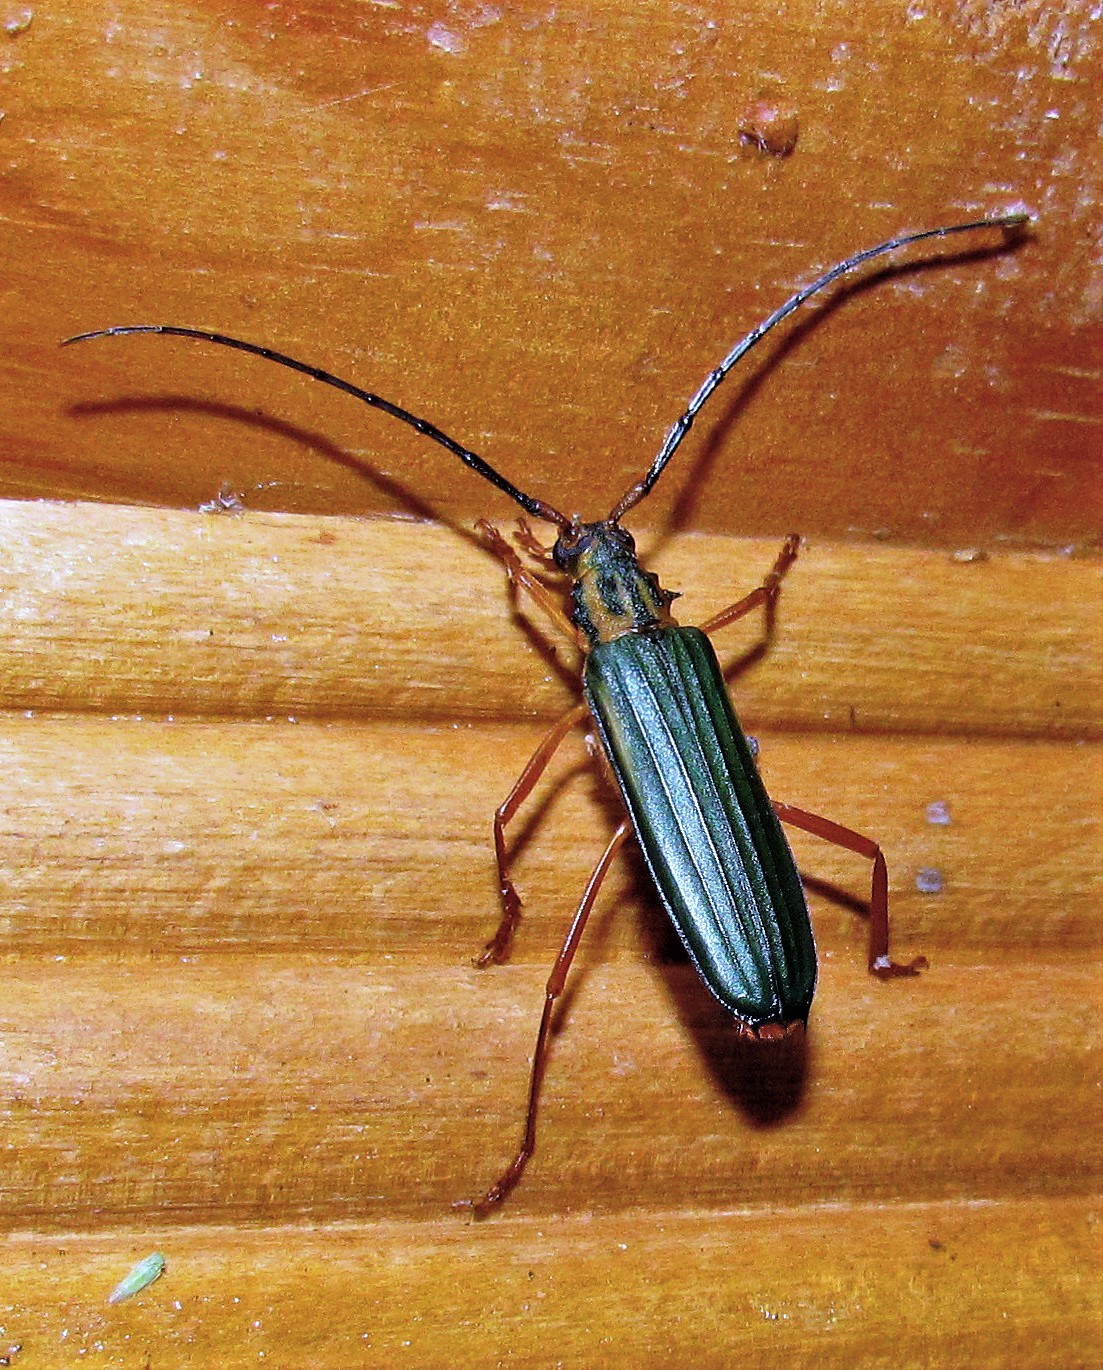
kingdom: Animalia
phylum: Arthropoda
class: Insecta
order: Coleoptera
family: Cerambycidae
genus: Chlorida
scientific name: Chlorida festiva
